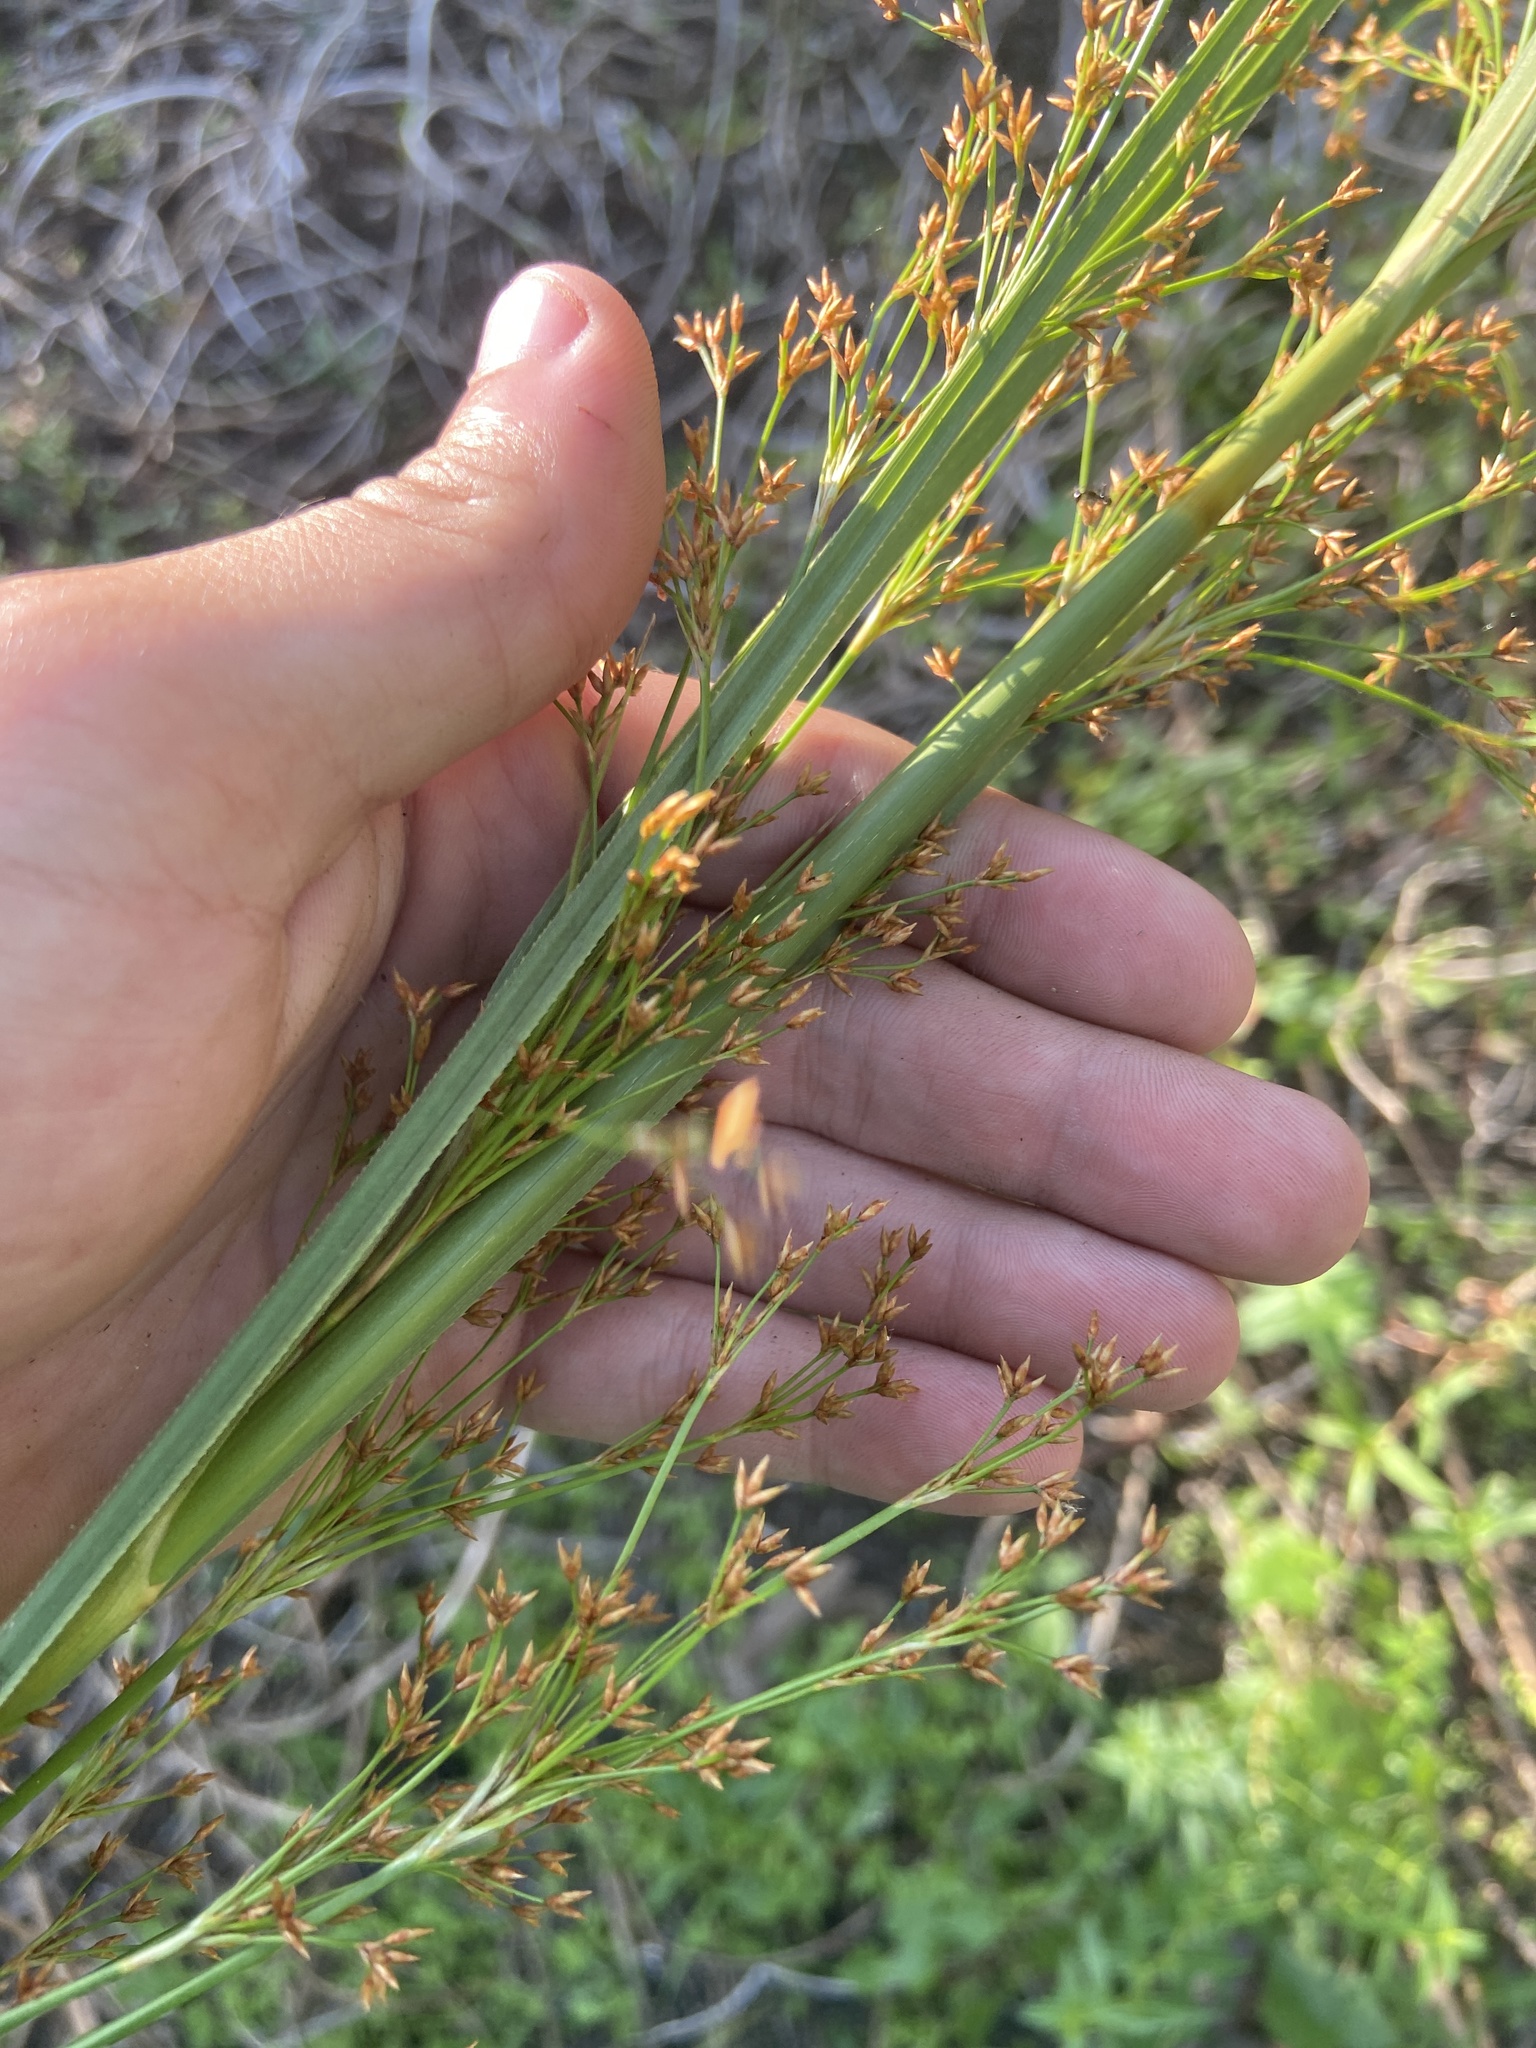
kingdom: Plantae
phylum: Tracheophyta
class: Liliopsida
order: Poales
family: Cyperaceae
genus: Cladium
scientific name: Cladium mariscus
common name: Great fen-sedge
